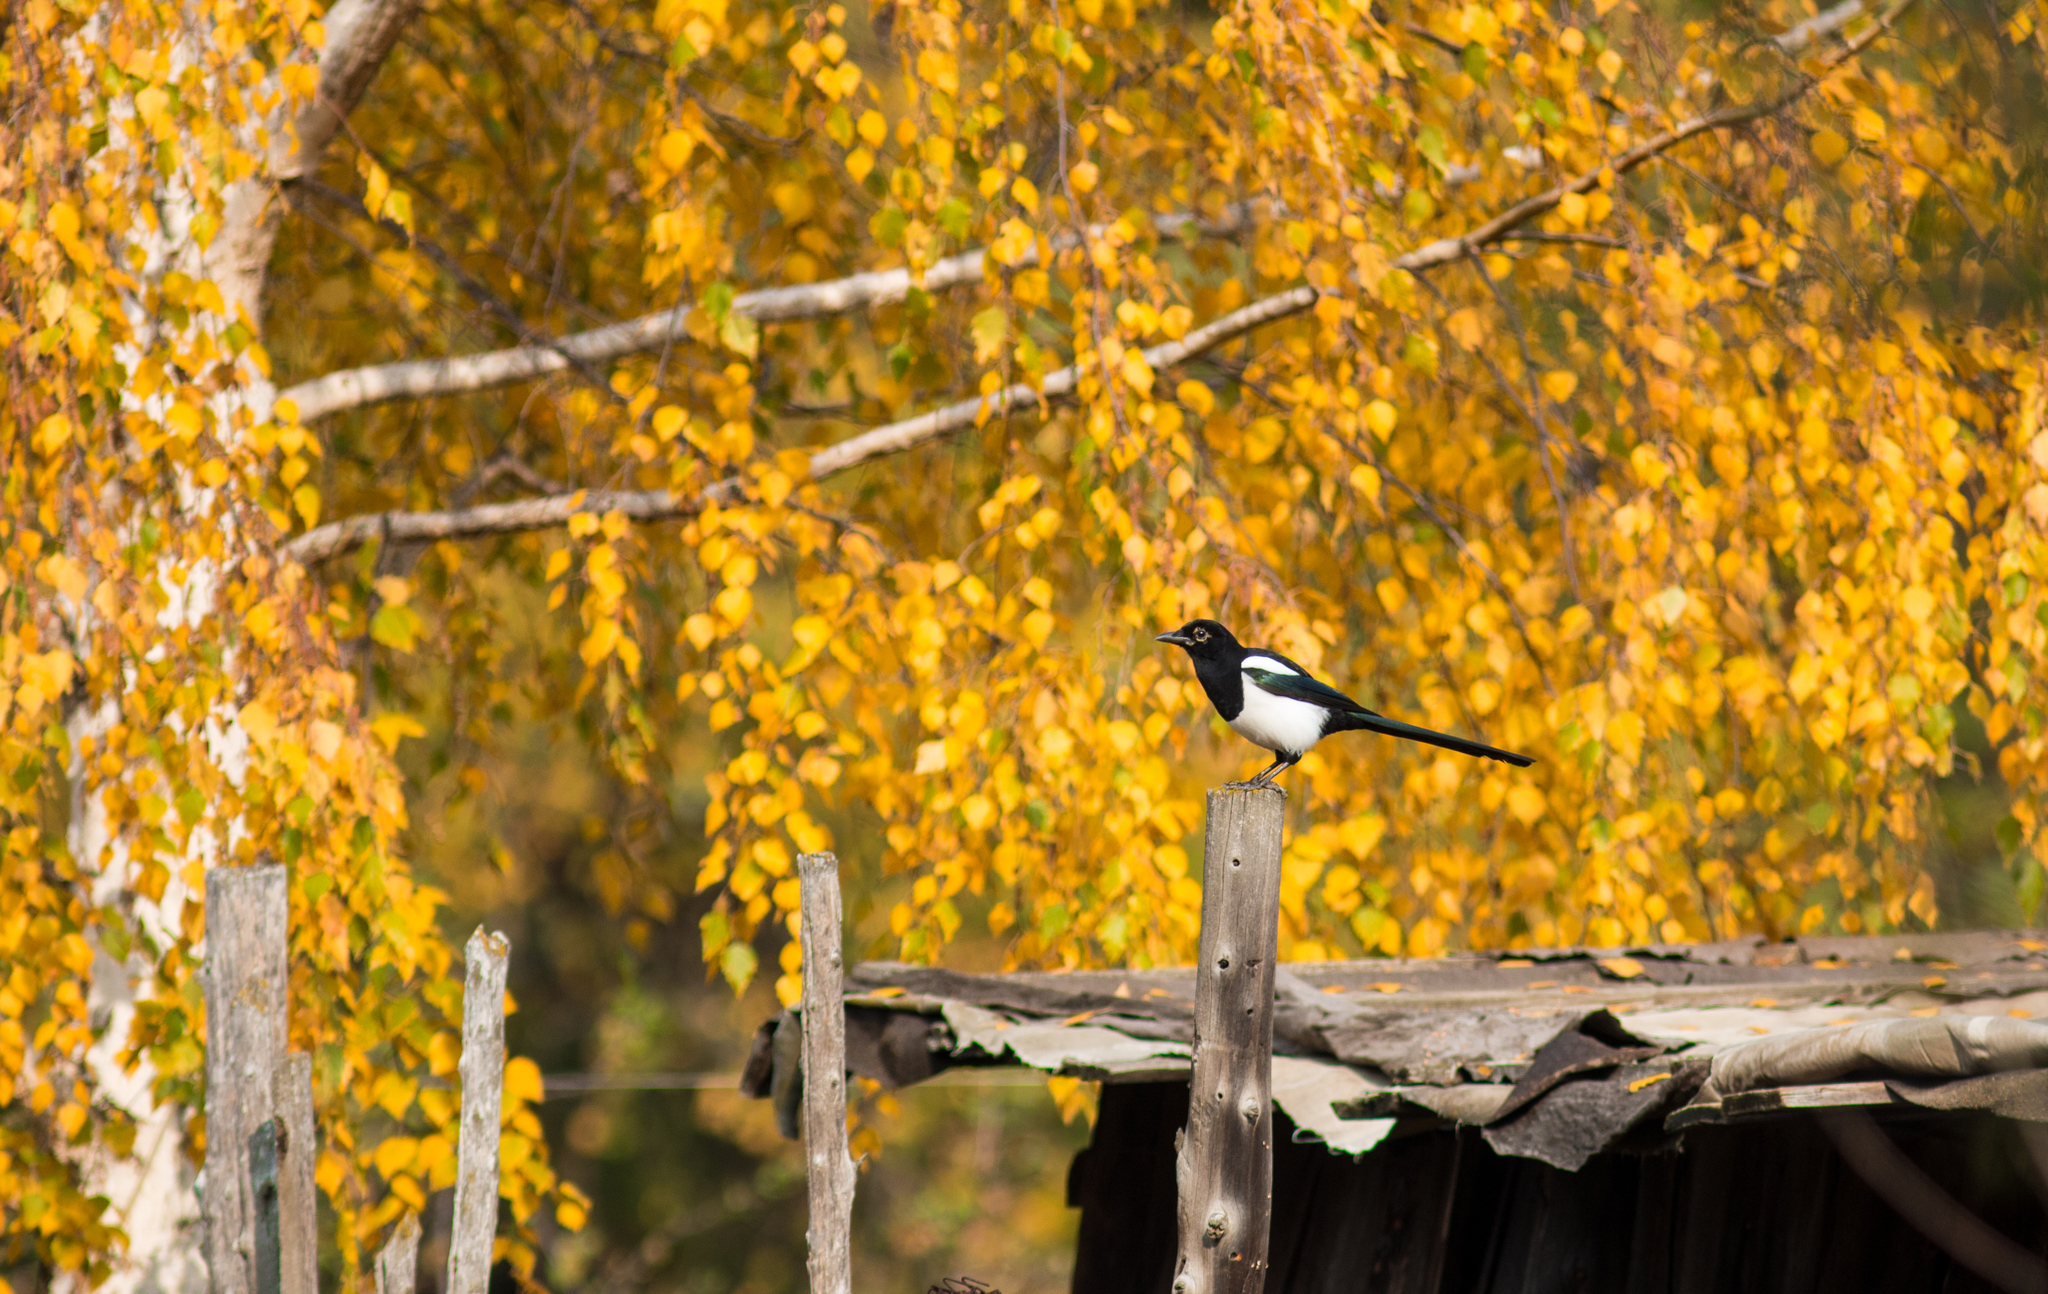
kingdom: Animalia
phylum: Chordata
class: Aves
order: Passeriformes
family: Corvidae
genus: Pica
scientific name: Pica pica
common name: Eurasian magpie
